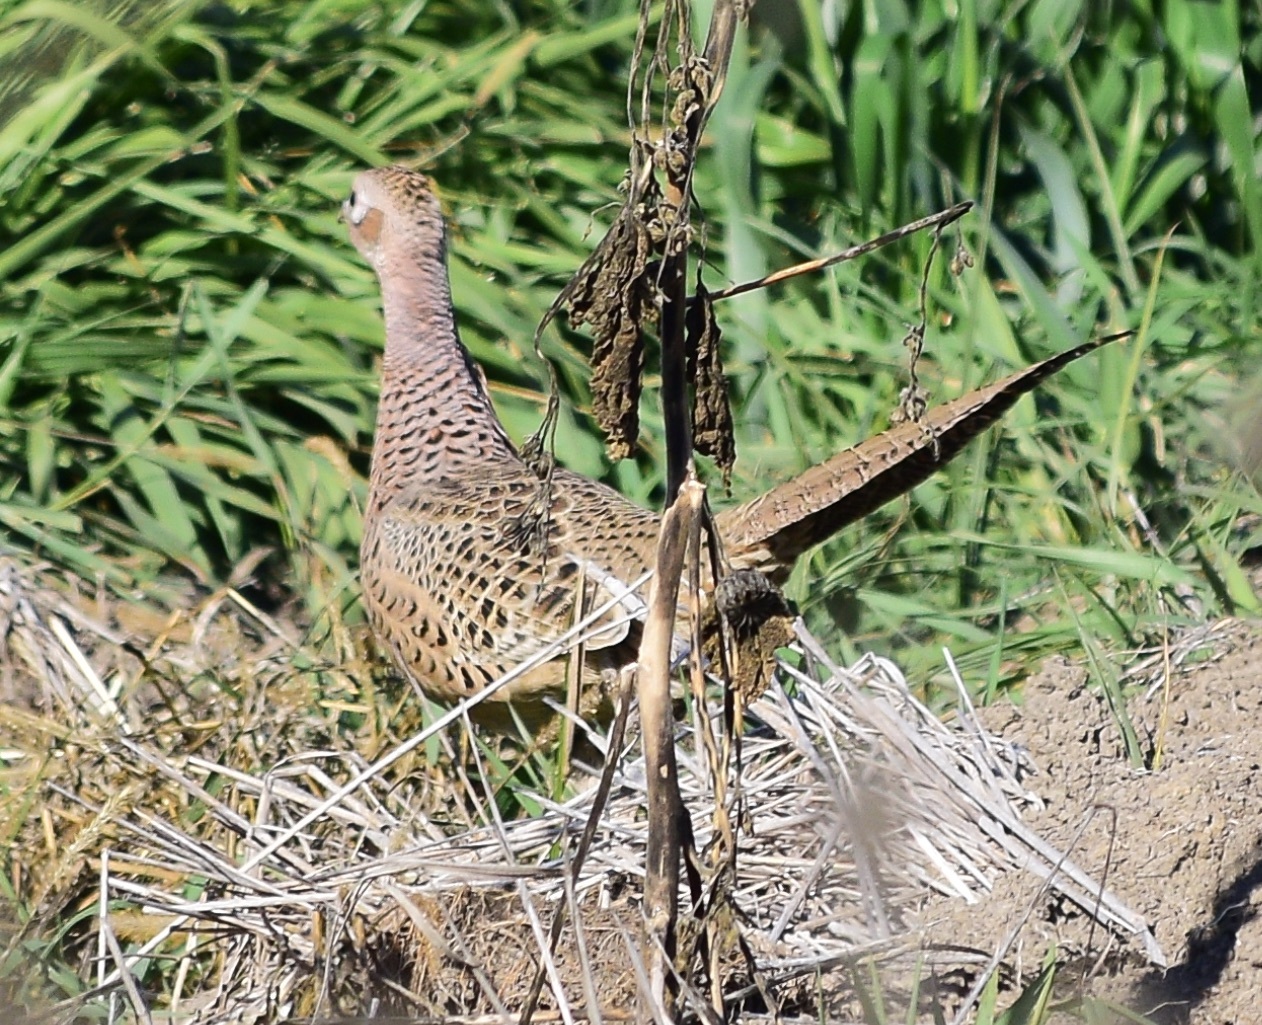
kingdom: Animalia
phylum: Chordata
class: Aves
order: Galliformes
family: Phasianidae
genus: Phasianus
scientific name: Phasianus colchicus
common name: Common pheasant
